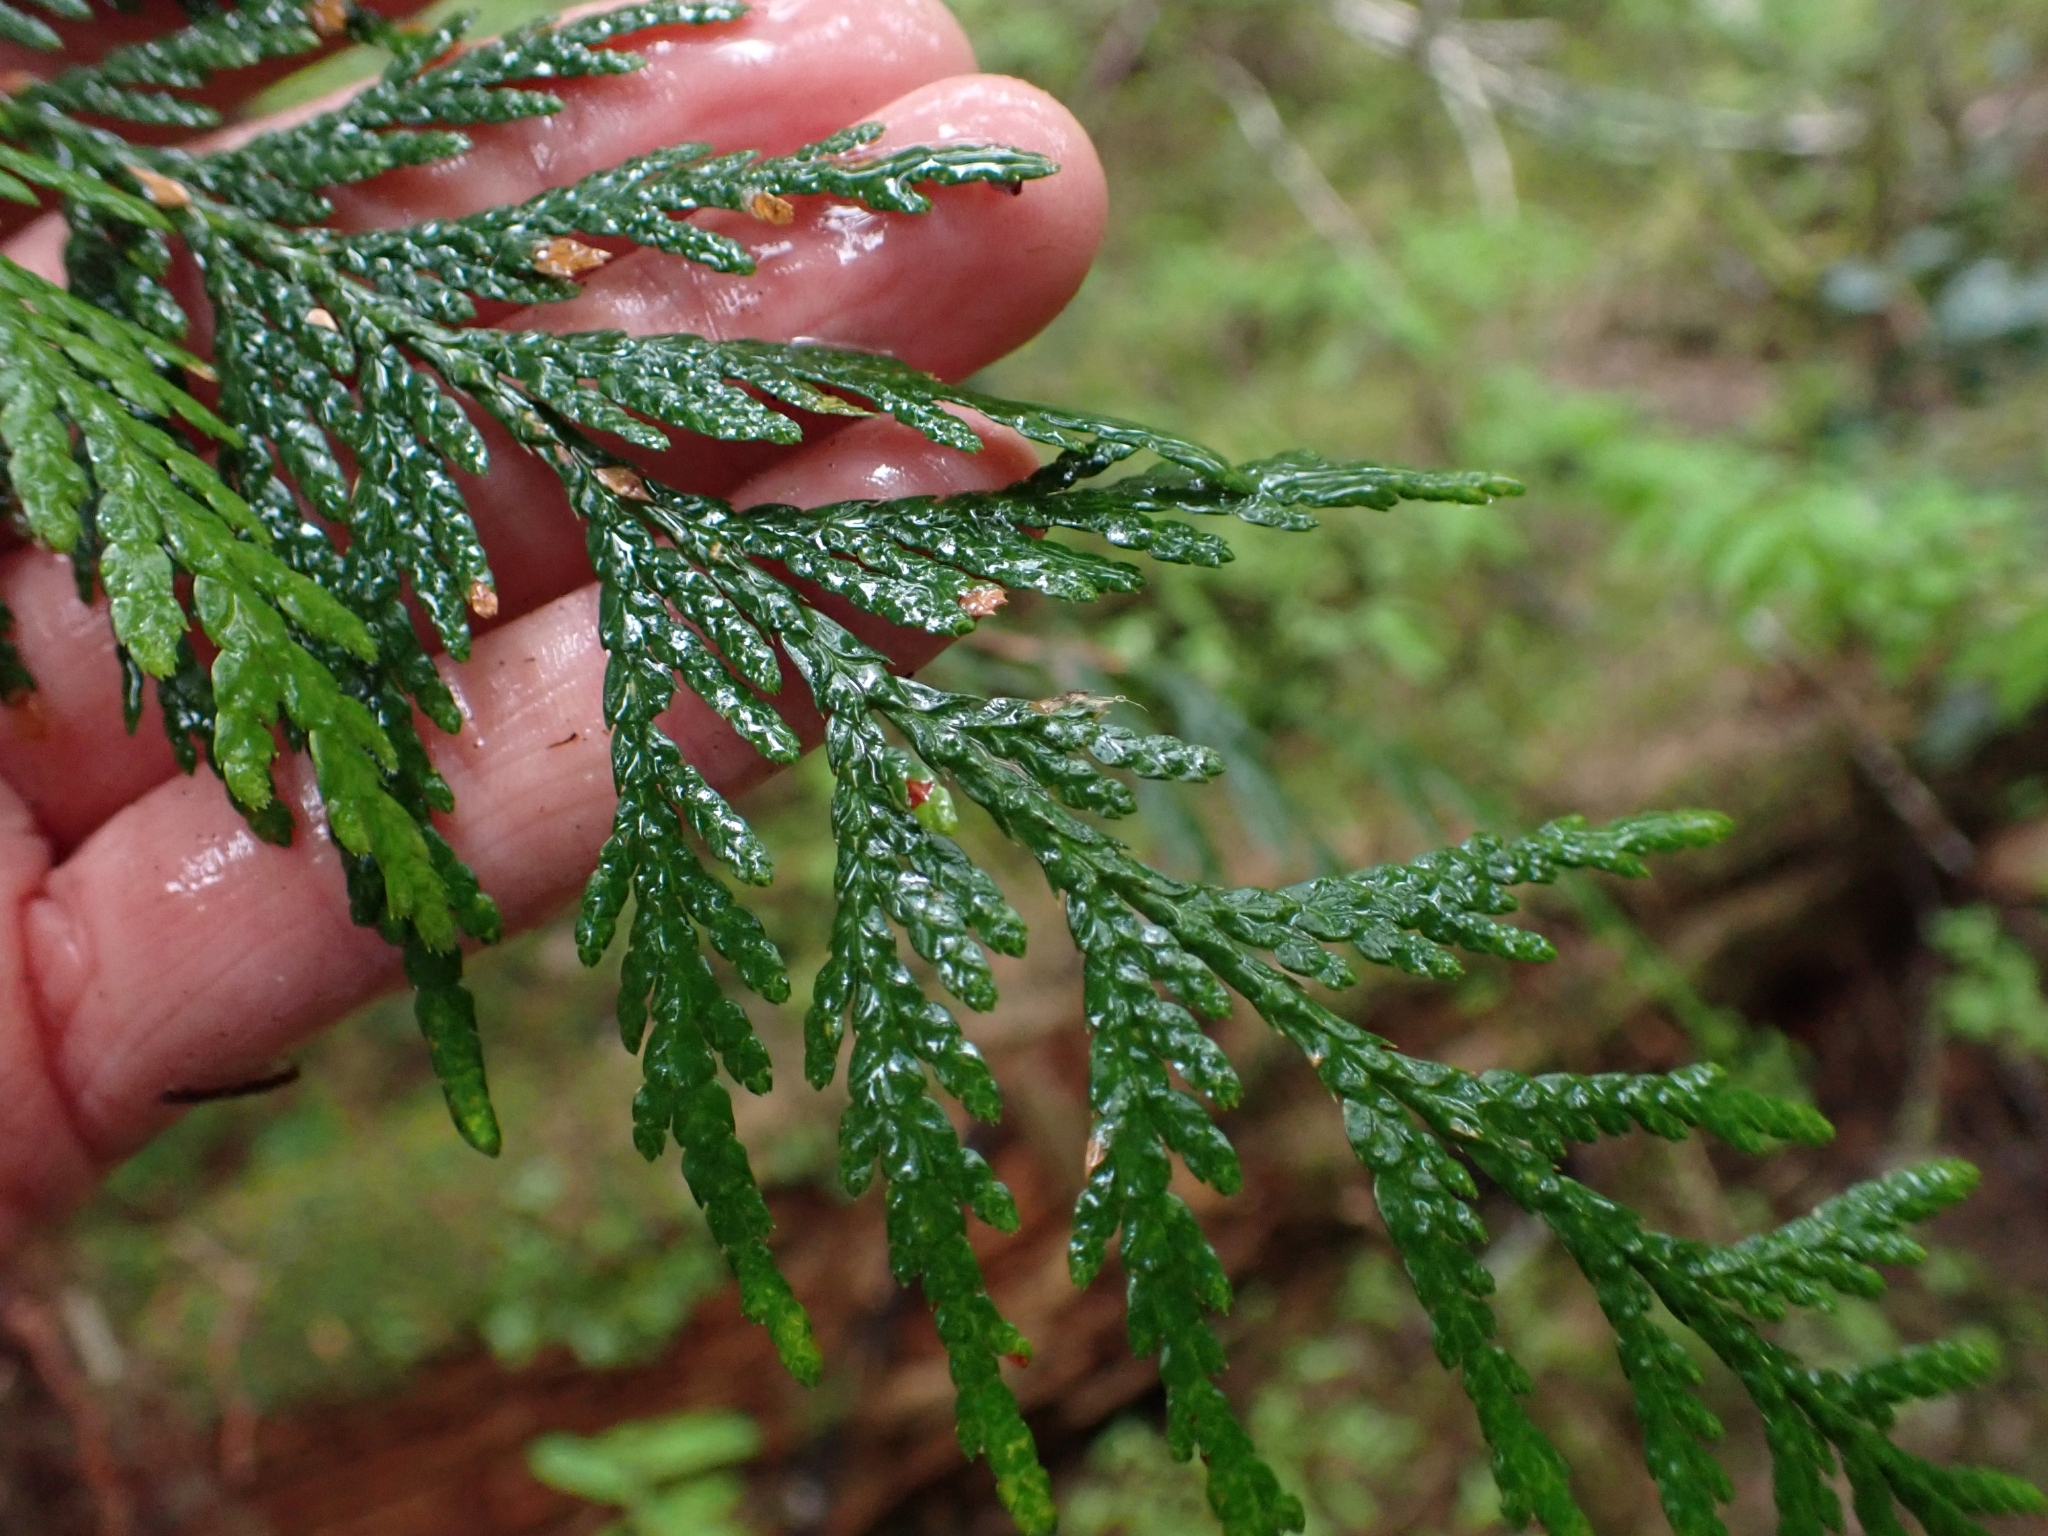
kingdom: Plantae
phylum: Tracheophyta
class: Pinopsida
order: Pinales
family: Cupressaceae
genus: Thuja
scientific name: Thuja plicata
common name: Western red-cedar
